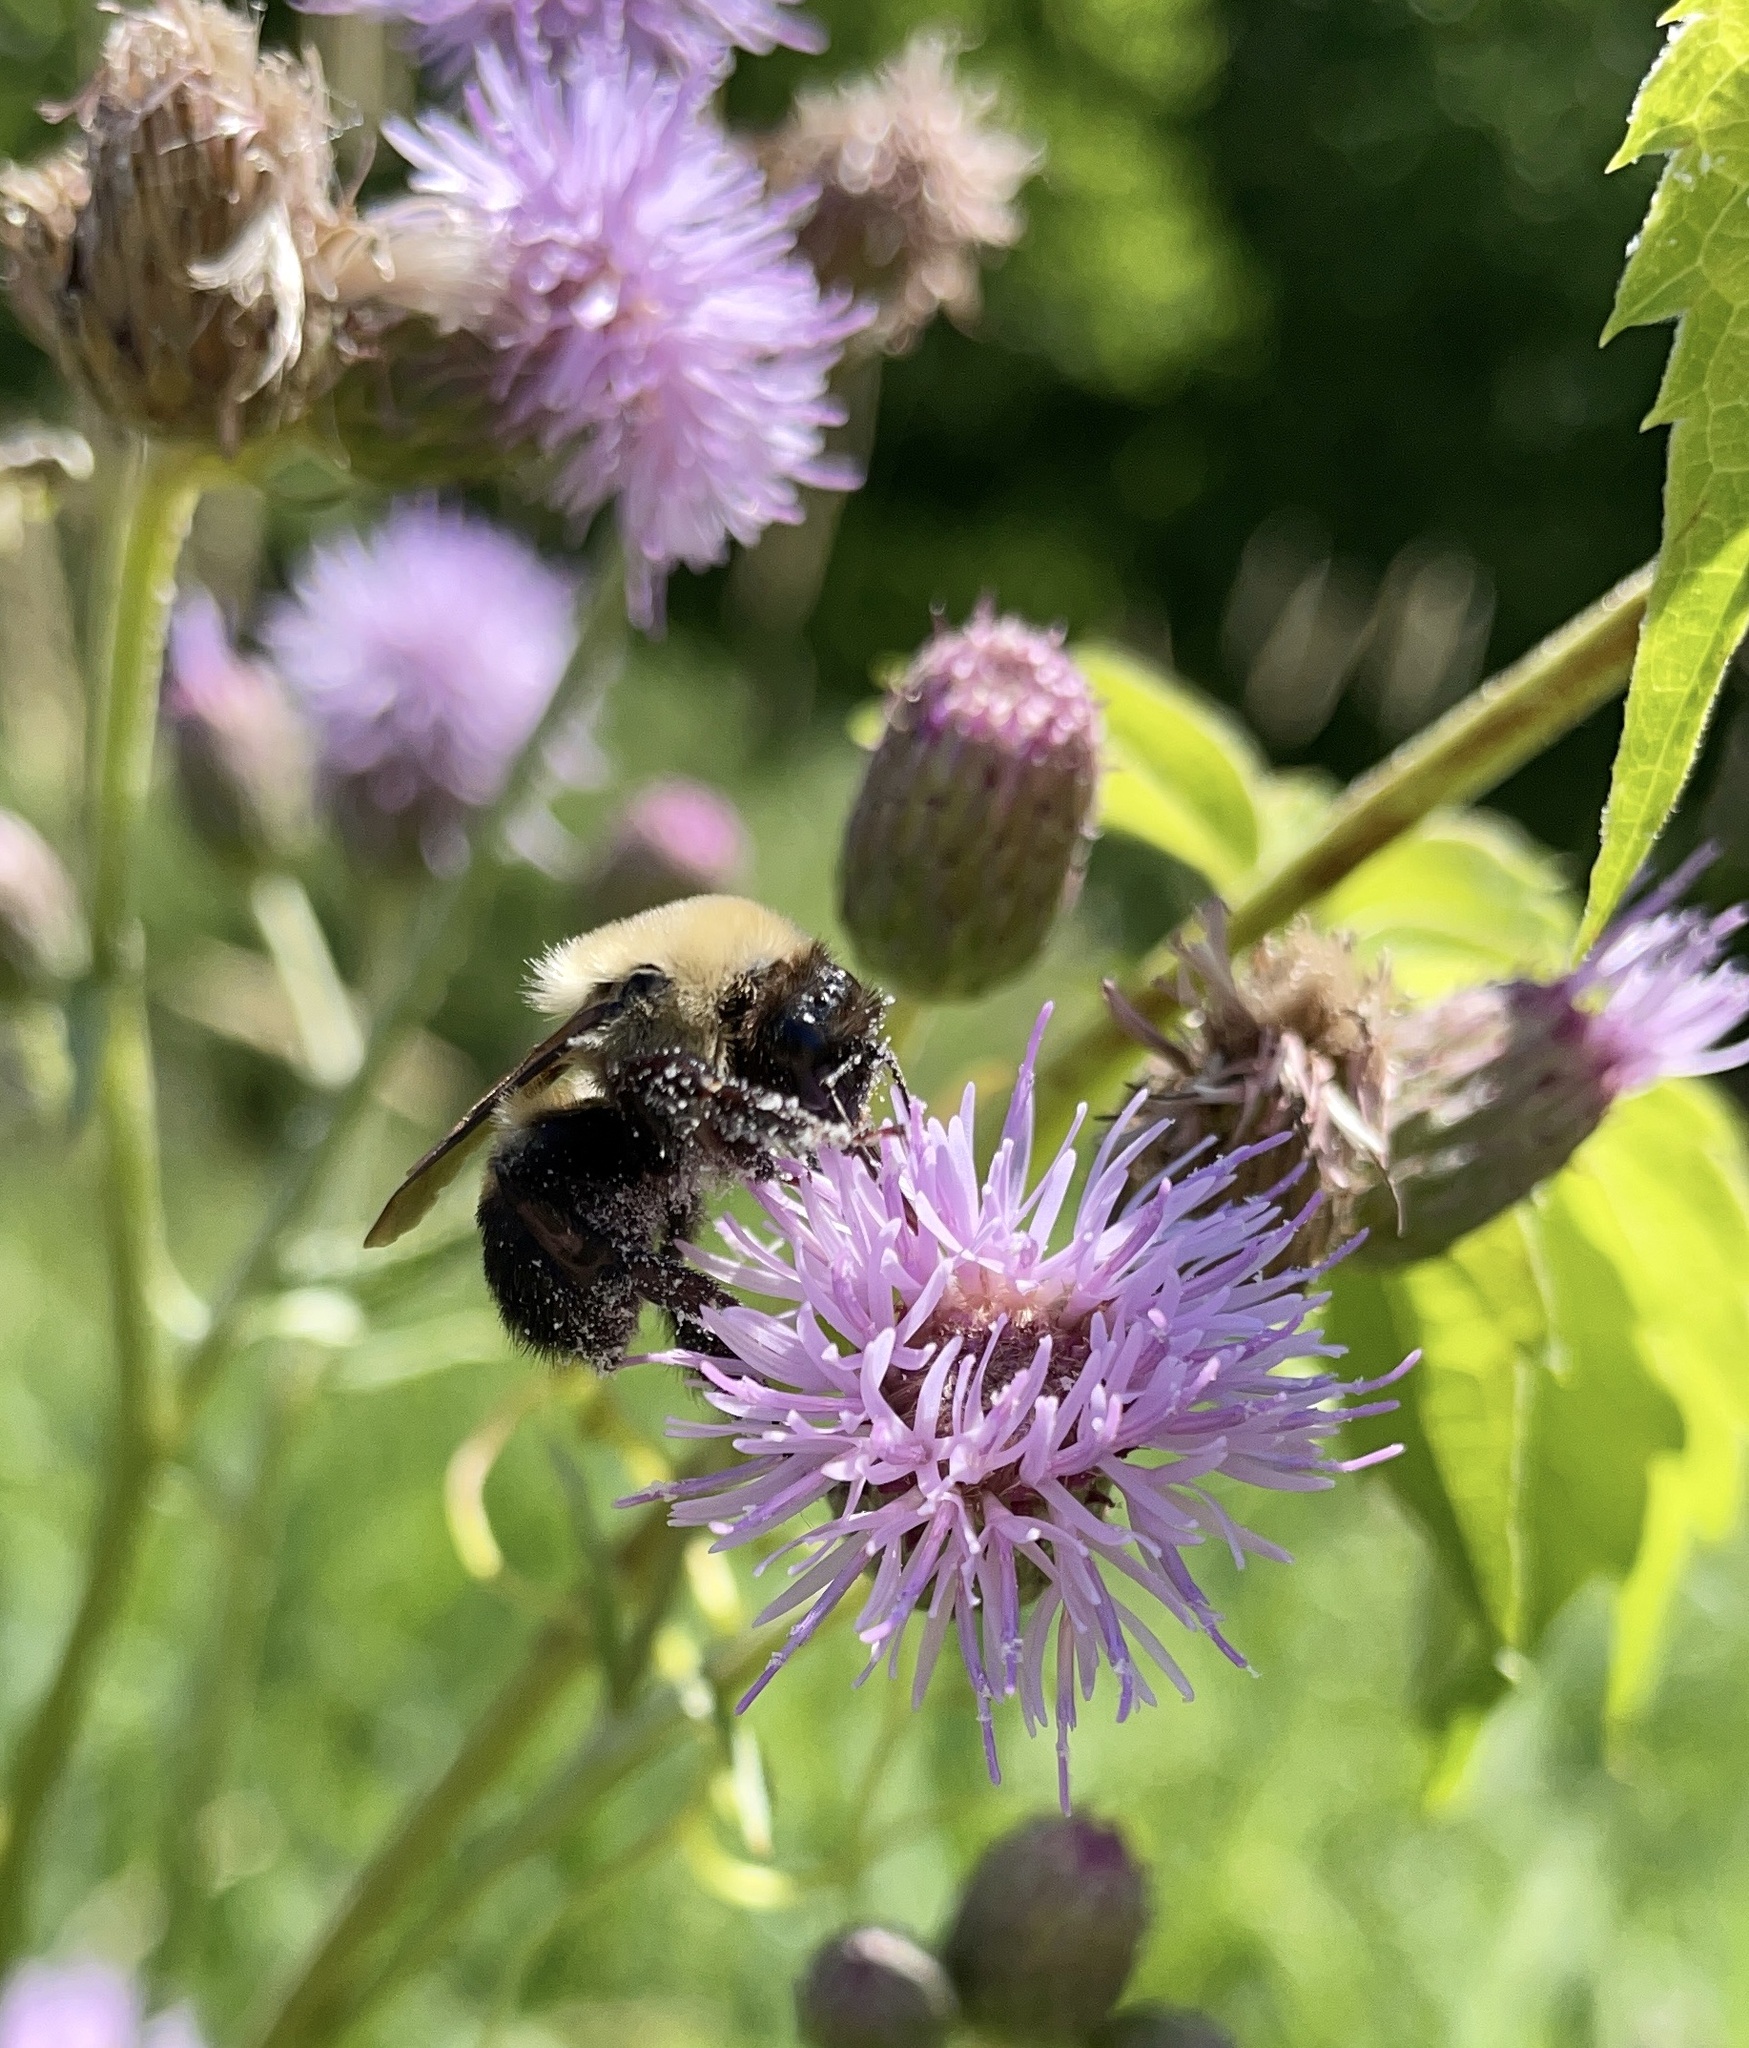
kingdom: Animalia
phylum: Arthropoda
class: Insecta
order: Hymenoptera
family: Apidae
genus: Bombus
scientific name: Bombus griseocollis
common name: Brown-belted bumble bee
